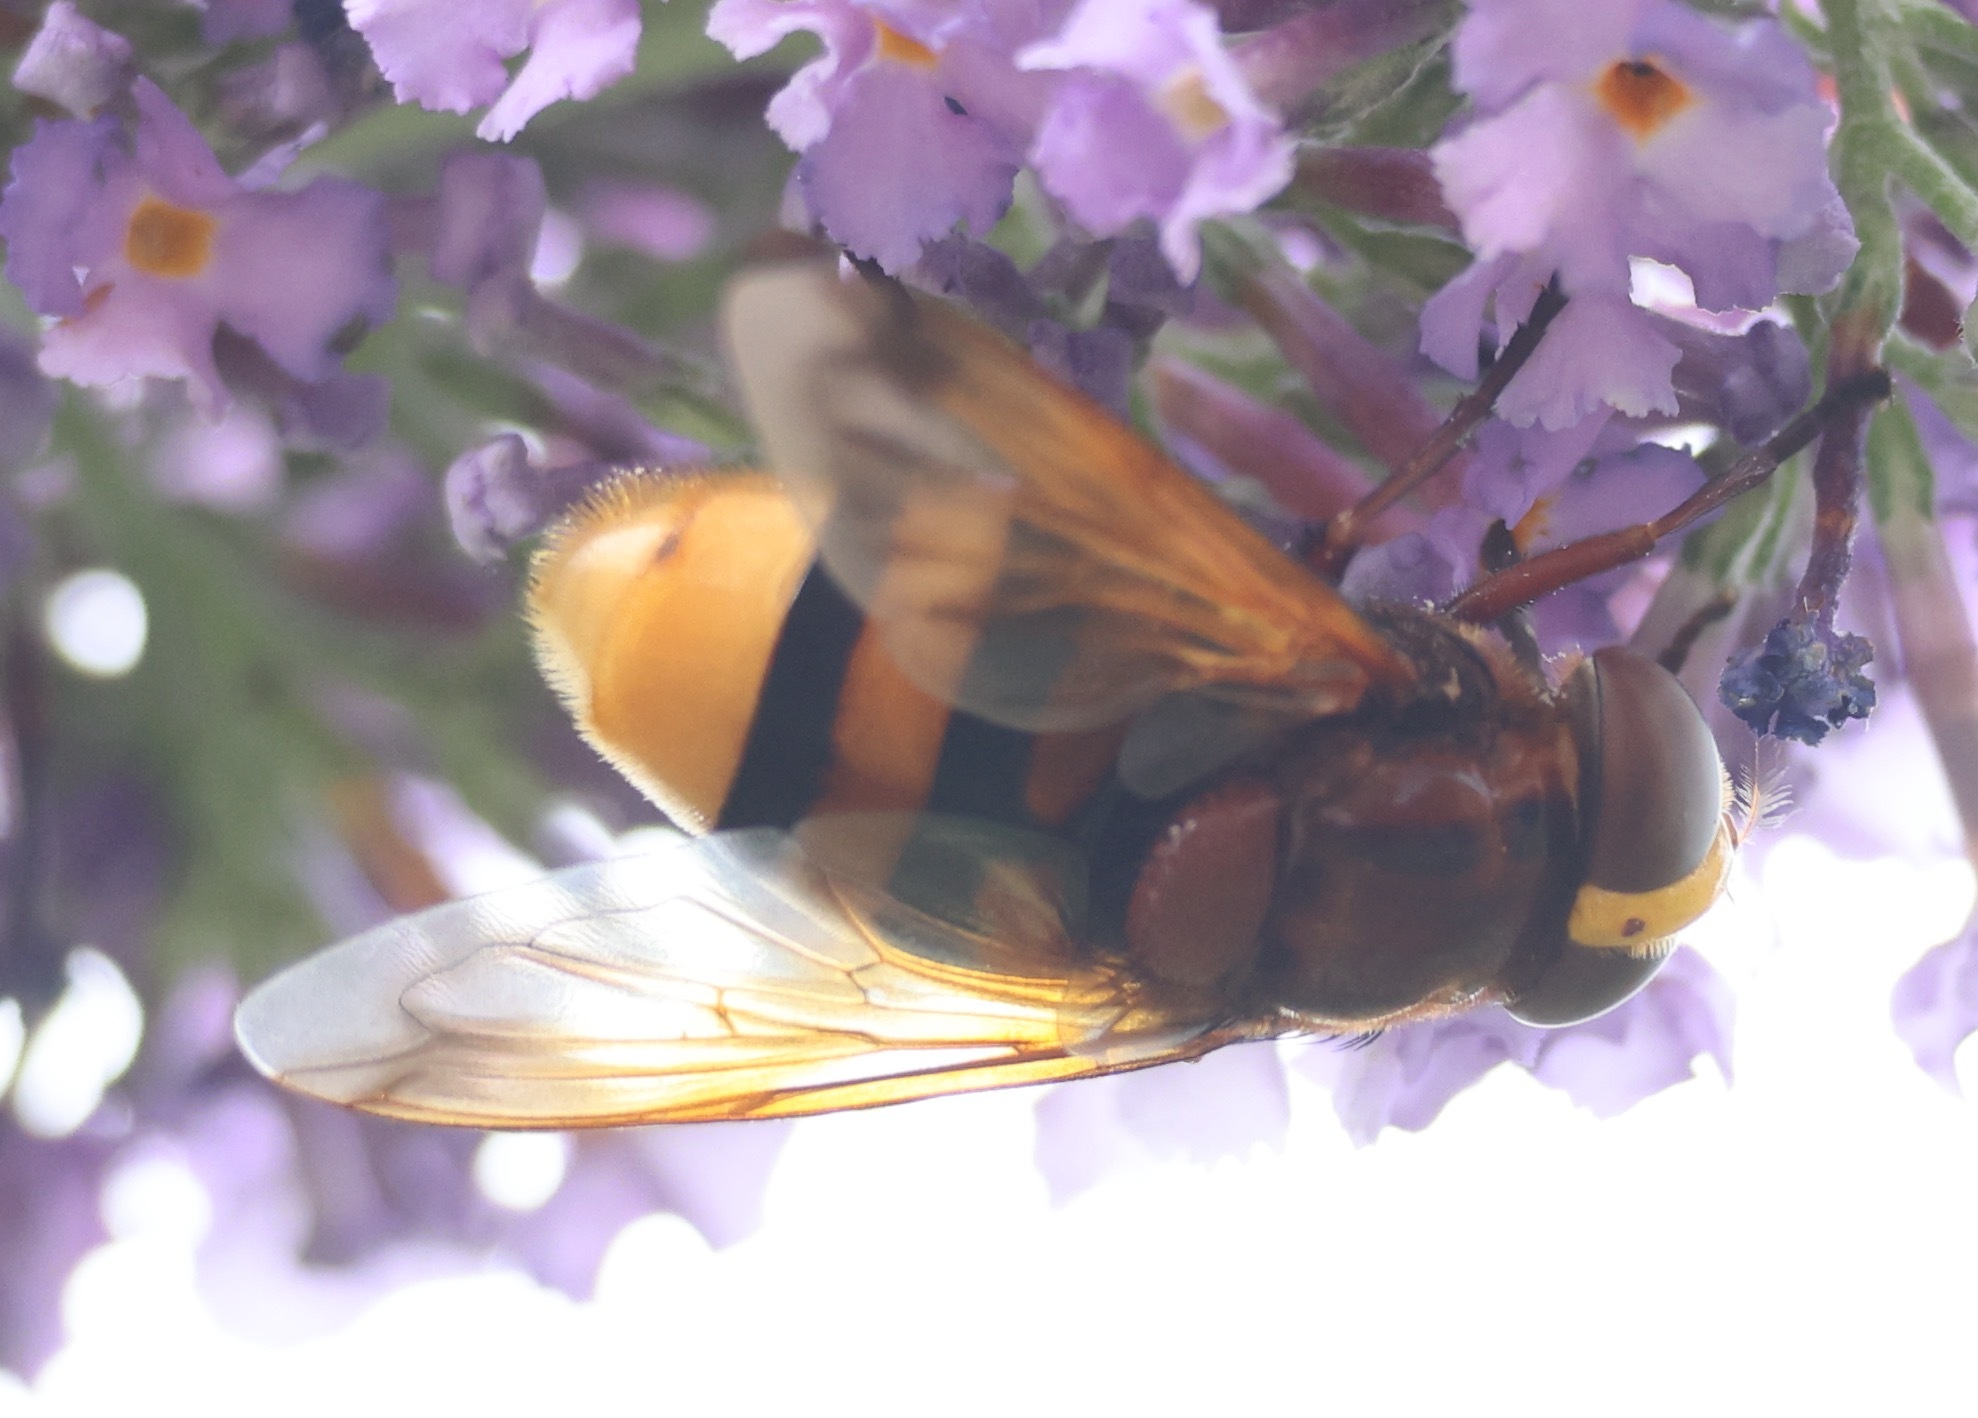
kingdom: Animalia
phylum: Arthropoda
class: Insecta
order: Diptera
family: Syrphidae
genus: Volucella
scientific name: Volucella zonaria
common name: Hornet hoverfly
